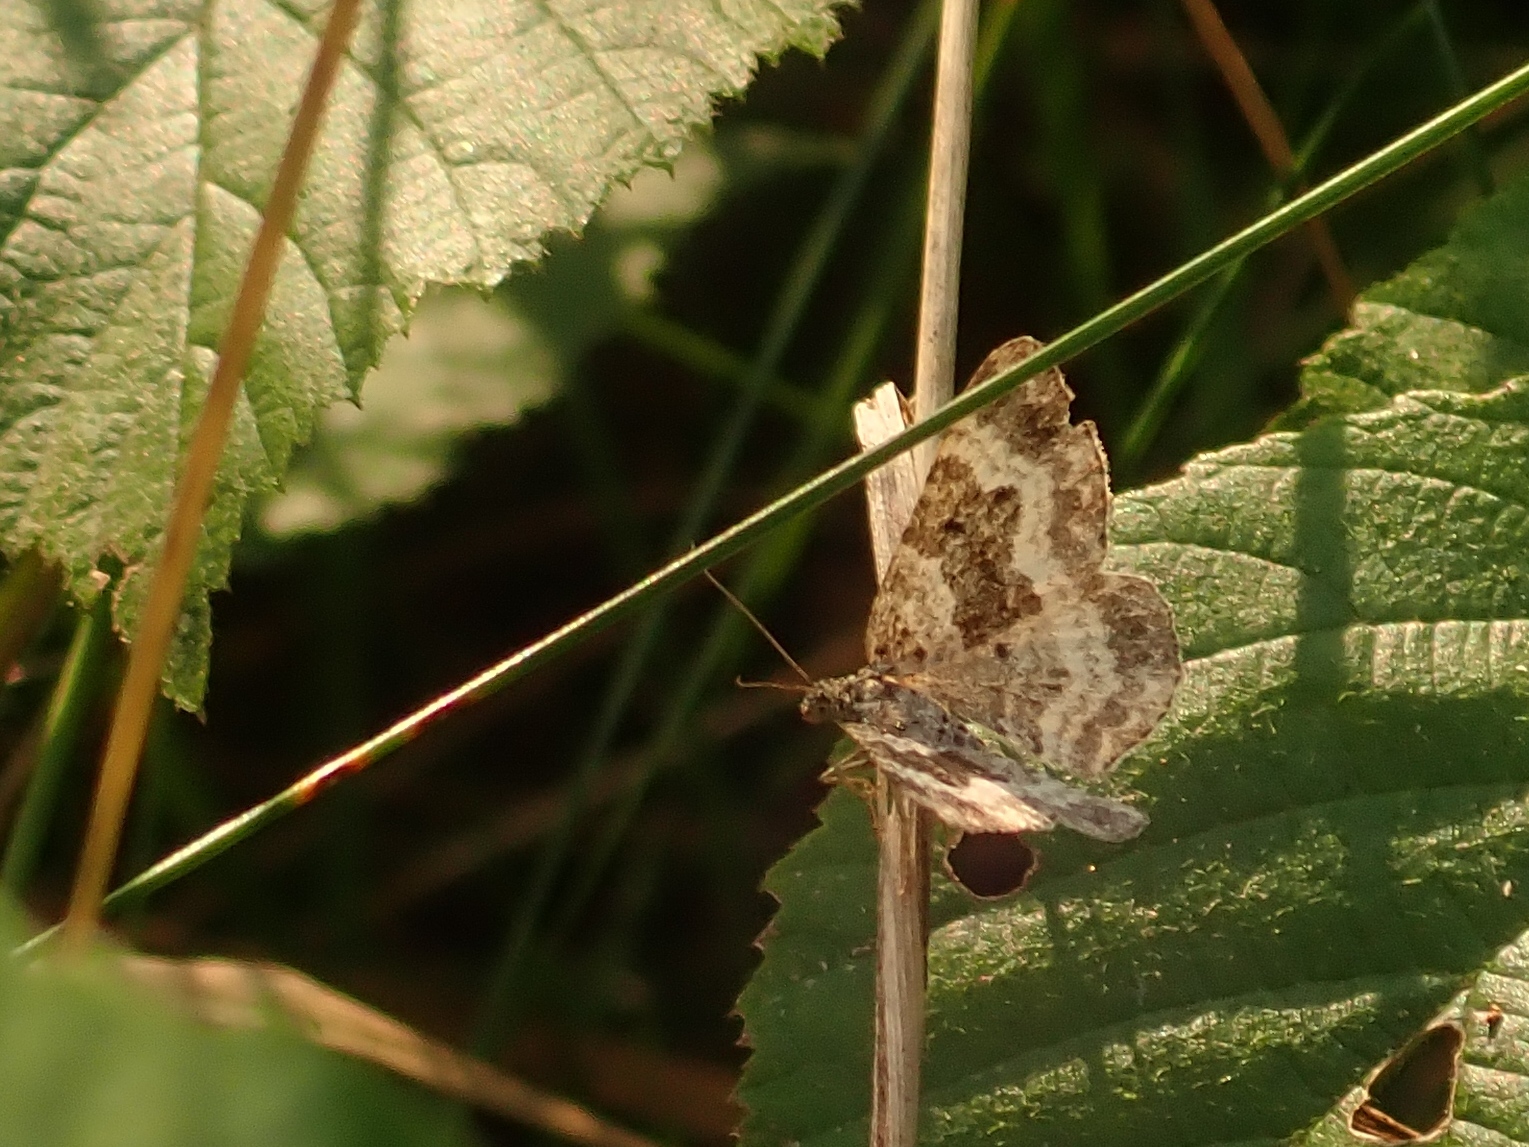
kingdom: Animalia
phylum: Arthropoda
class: Insecta
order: Lepidoptera
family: Geometridae
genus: Epirrhoe
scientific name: Epirrhoe alternata
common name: Common carpet
